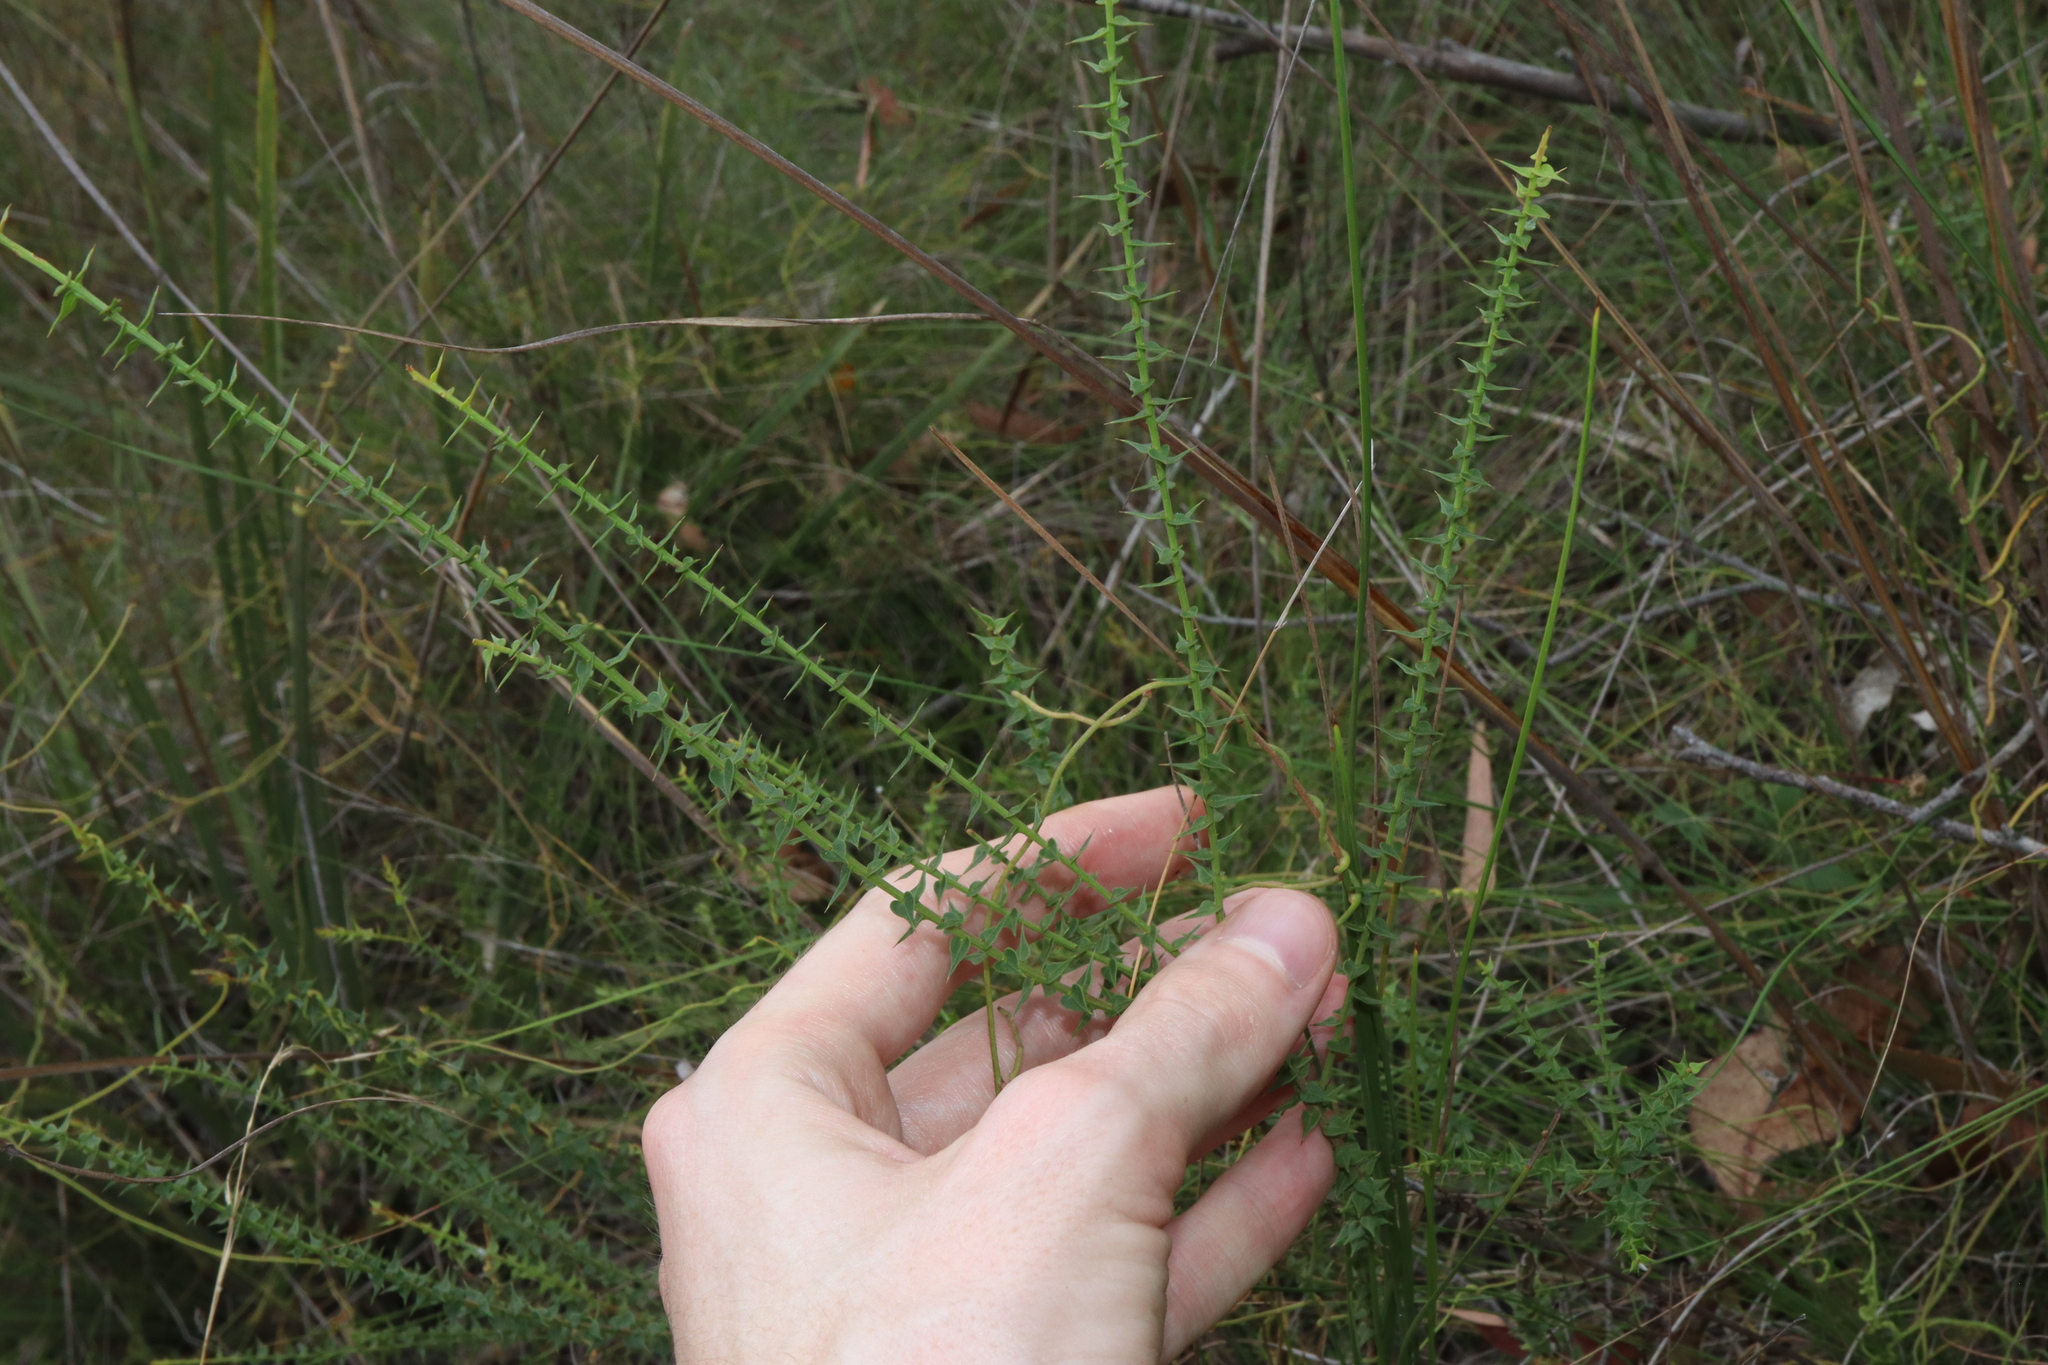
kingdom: Plantae
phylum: Tracheophyta
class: Magnoliopsida
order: Fabales
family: Fabaceae
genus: Daviesia
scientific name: Daviesia squarrosa
